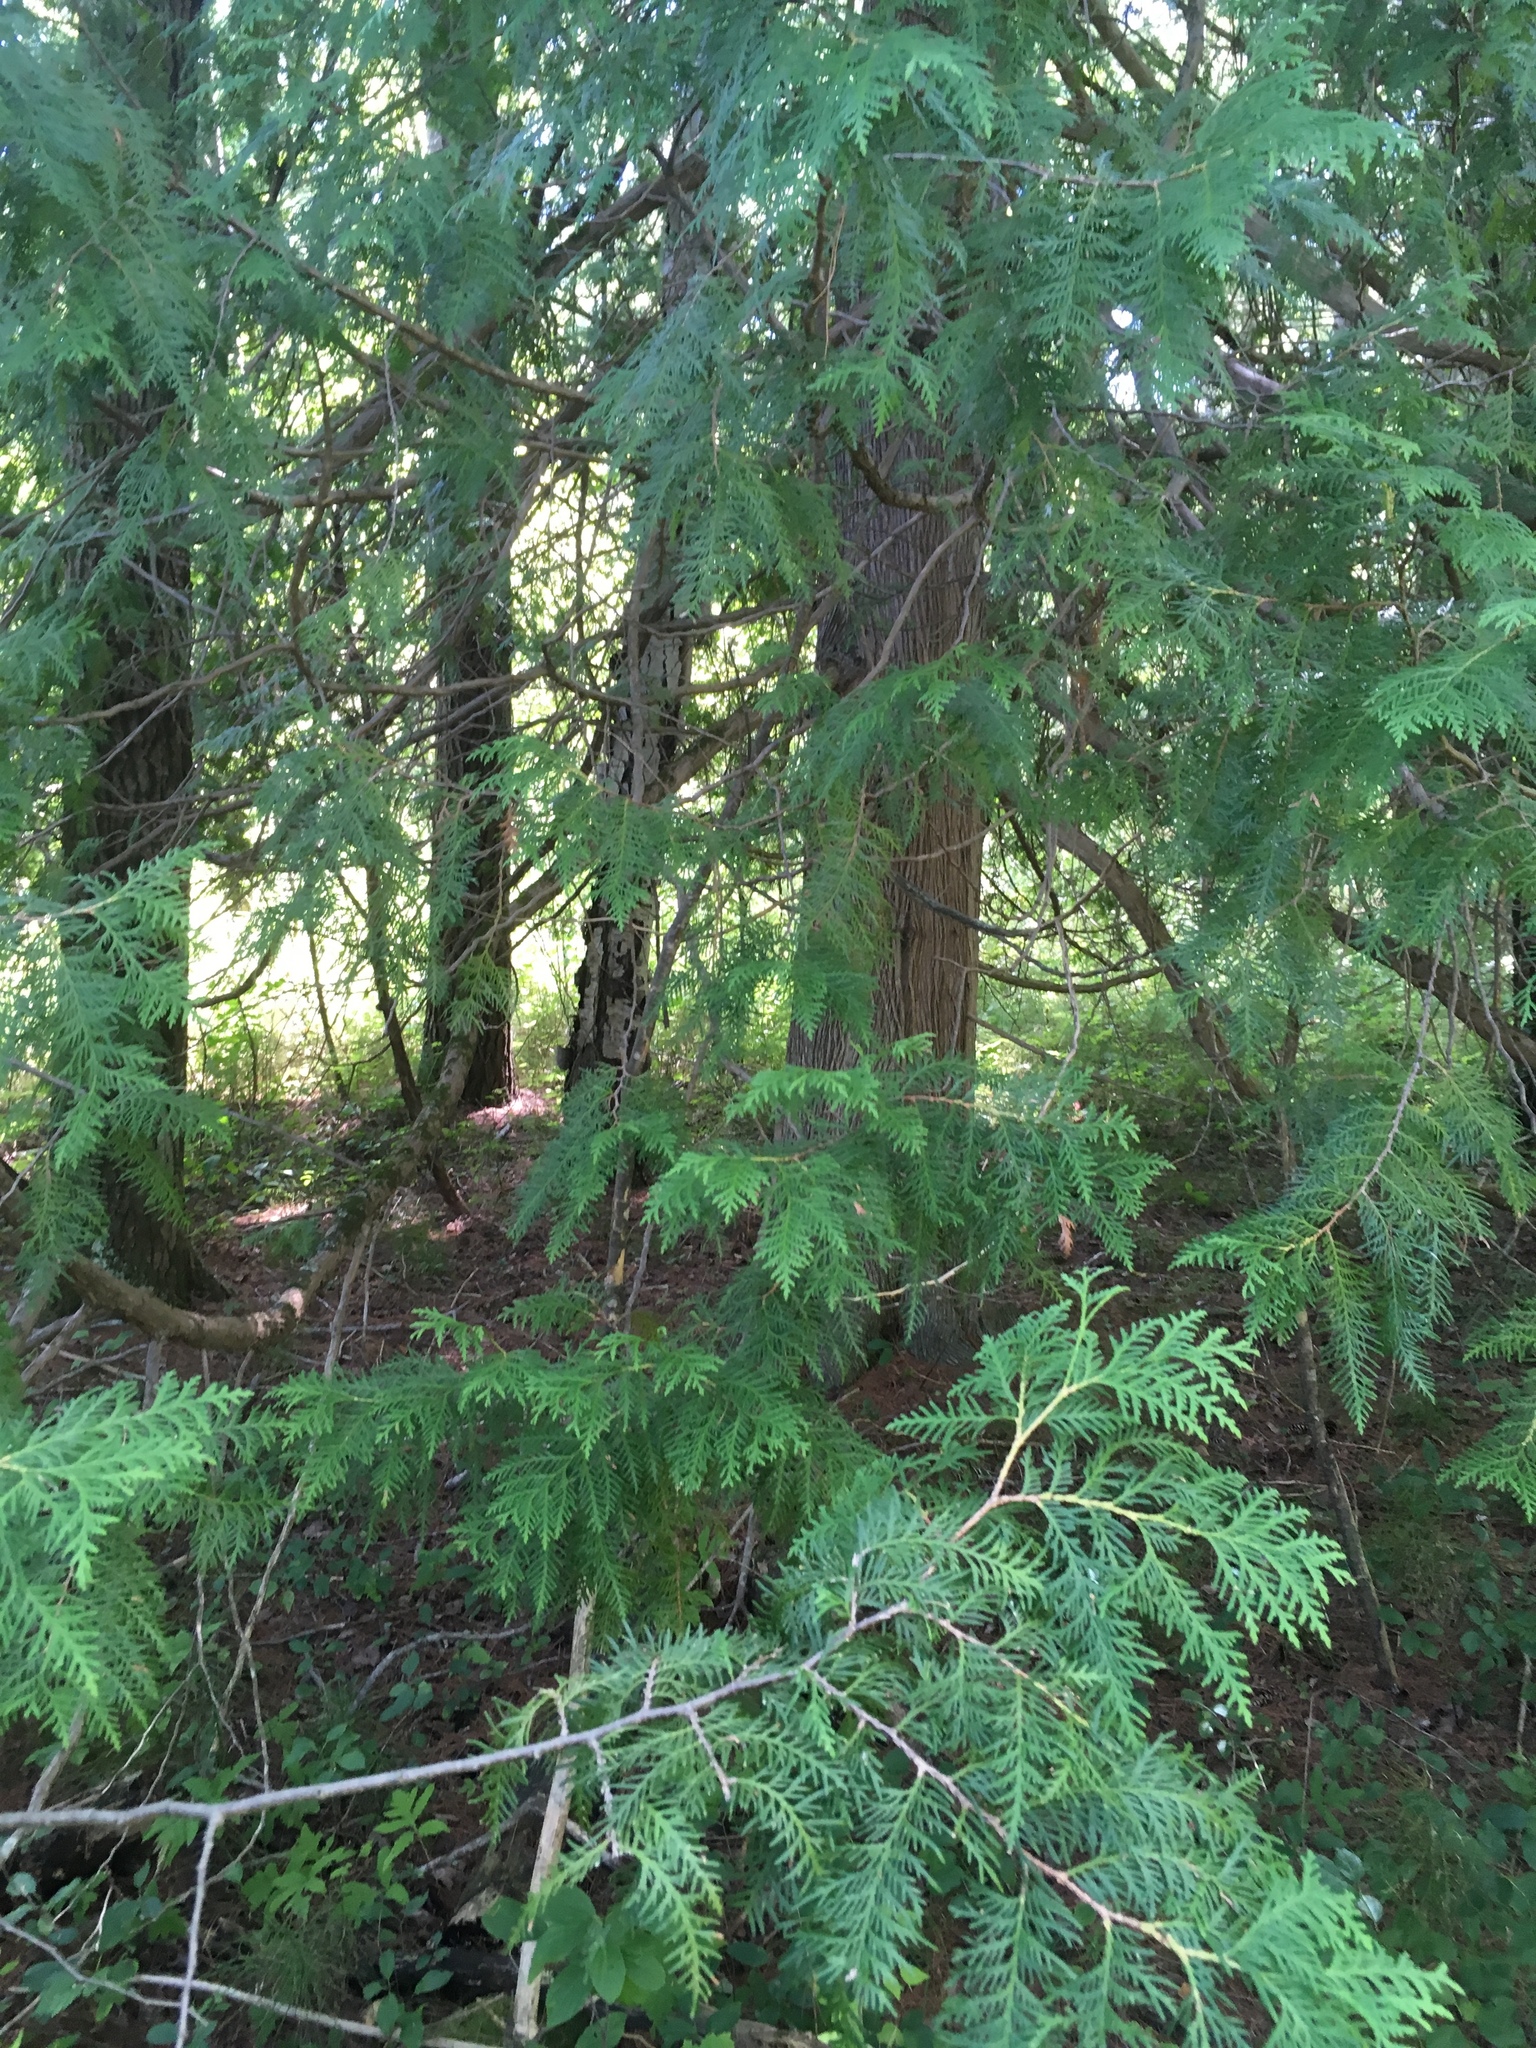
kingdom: Plantae
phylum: Tracheophyta
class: Pinopsida
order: Pinales
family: Cupressaceae
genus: Thuja
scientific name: Thuja occidentalis
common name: Northern white-cedar
